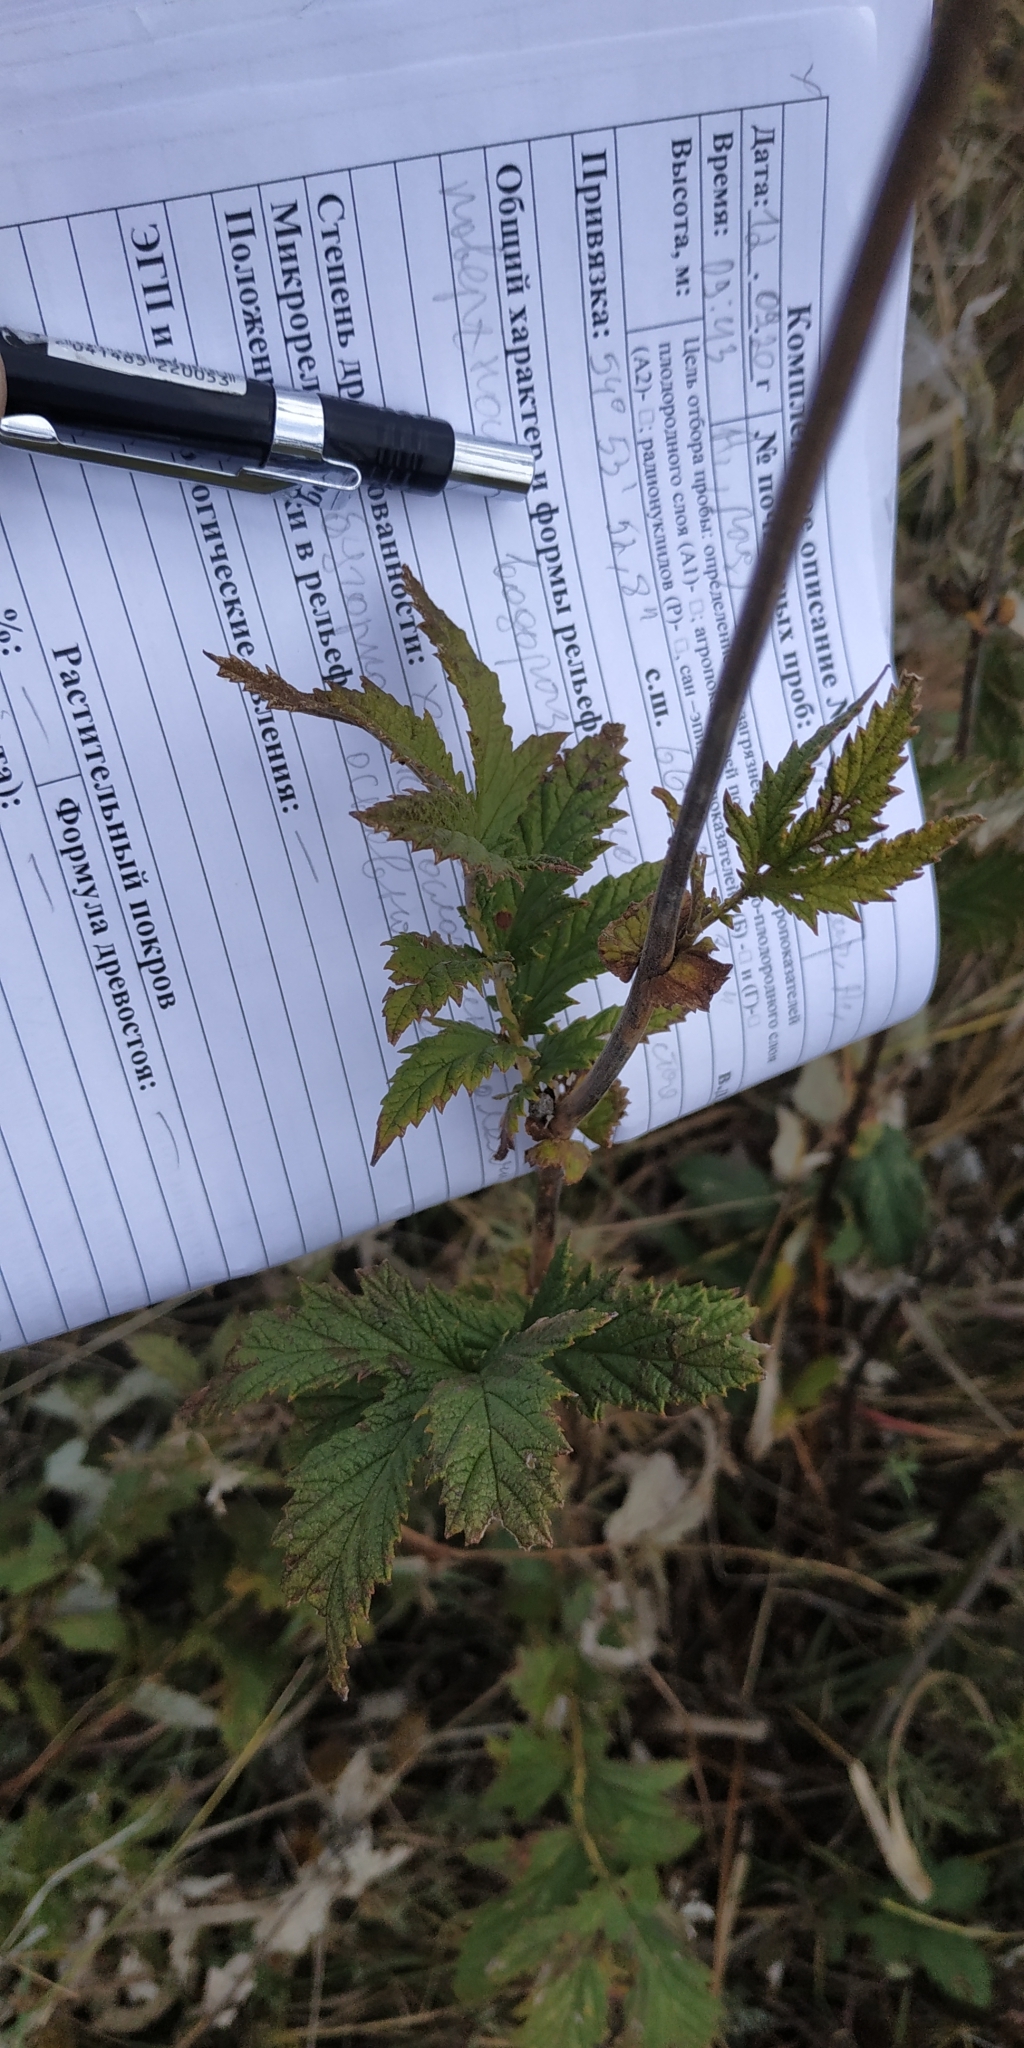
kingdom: Plantae
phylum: Tracheophyta
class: Magnoliopsida
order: Rosales
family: Rosaceae
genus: Filipendula
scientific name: Filipendula ulmaria
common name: Meadowsweet
